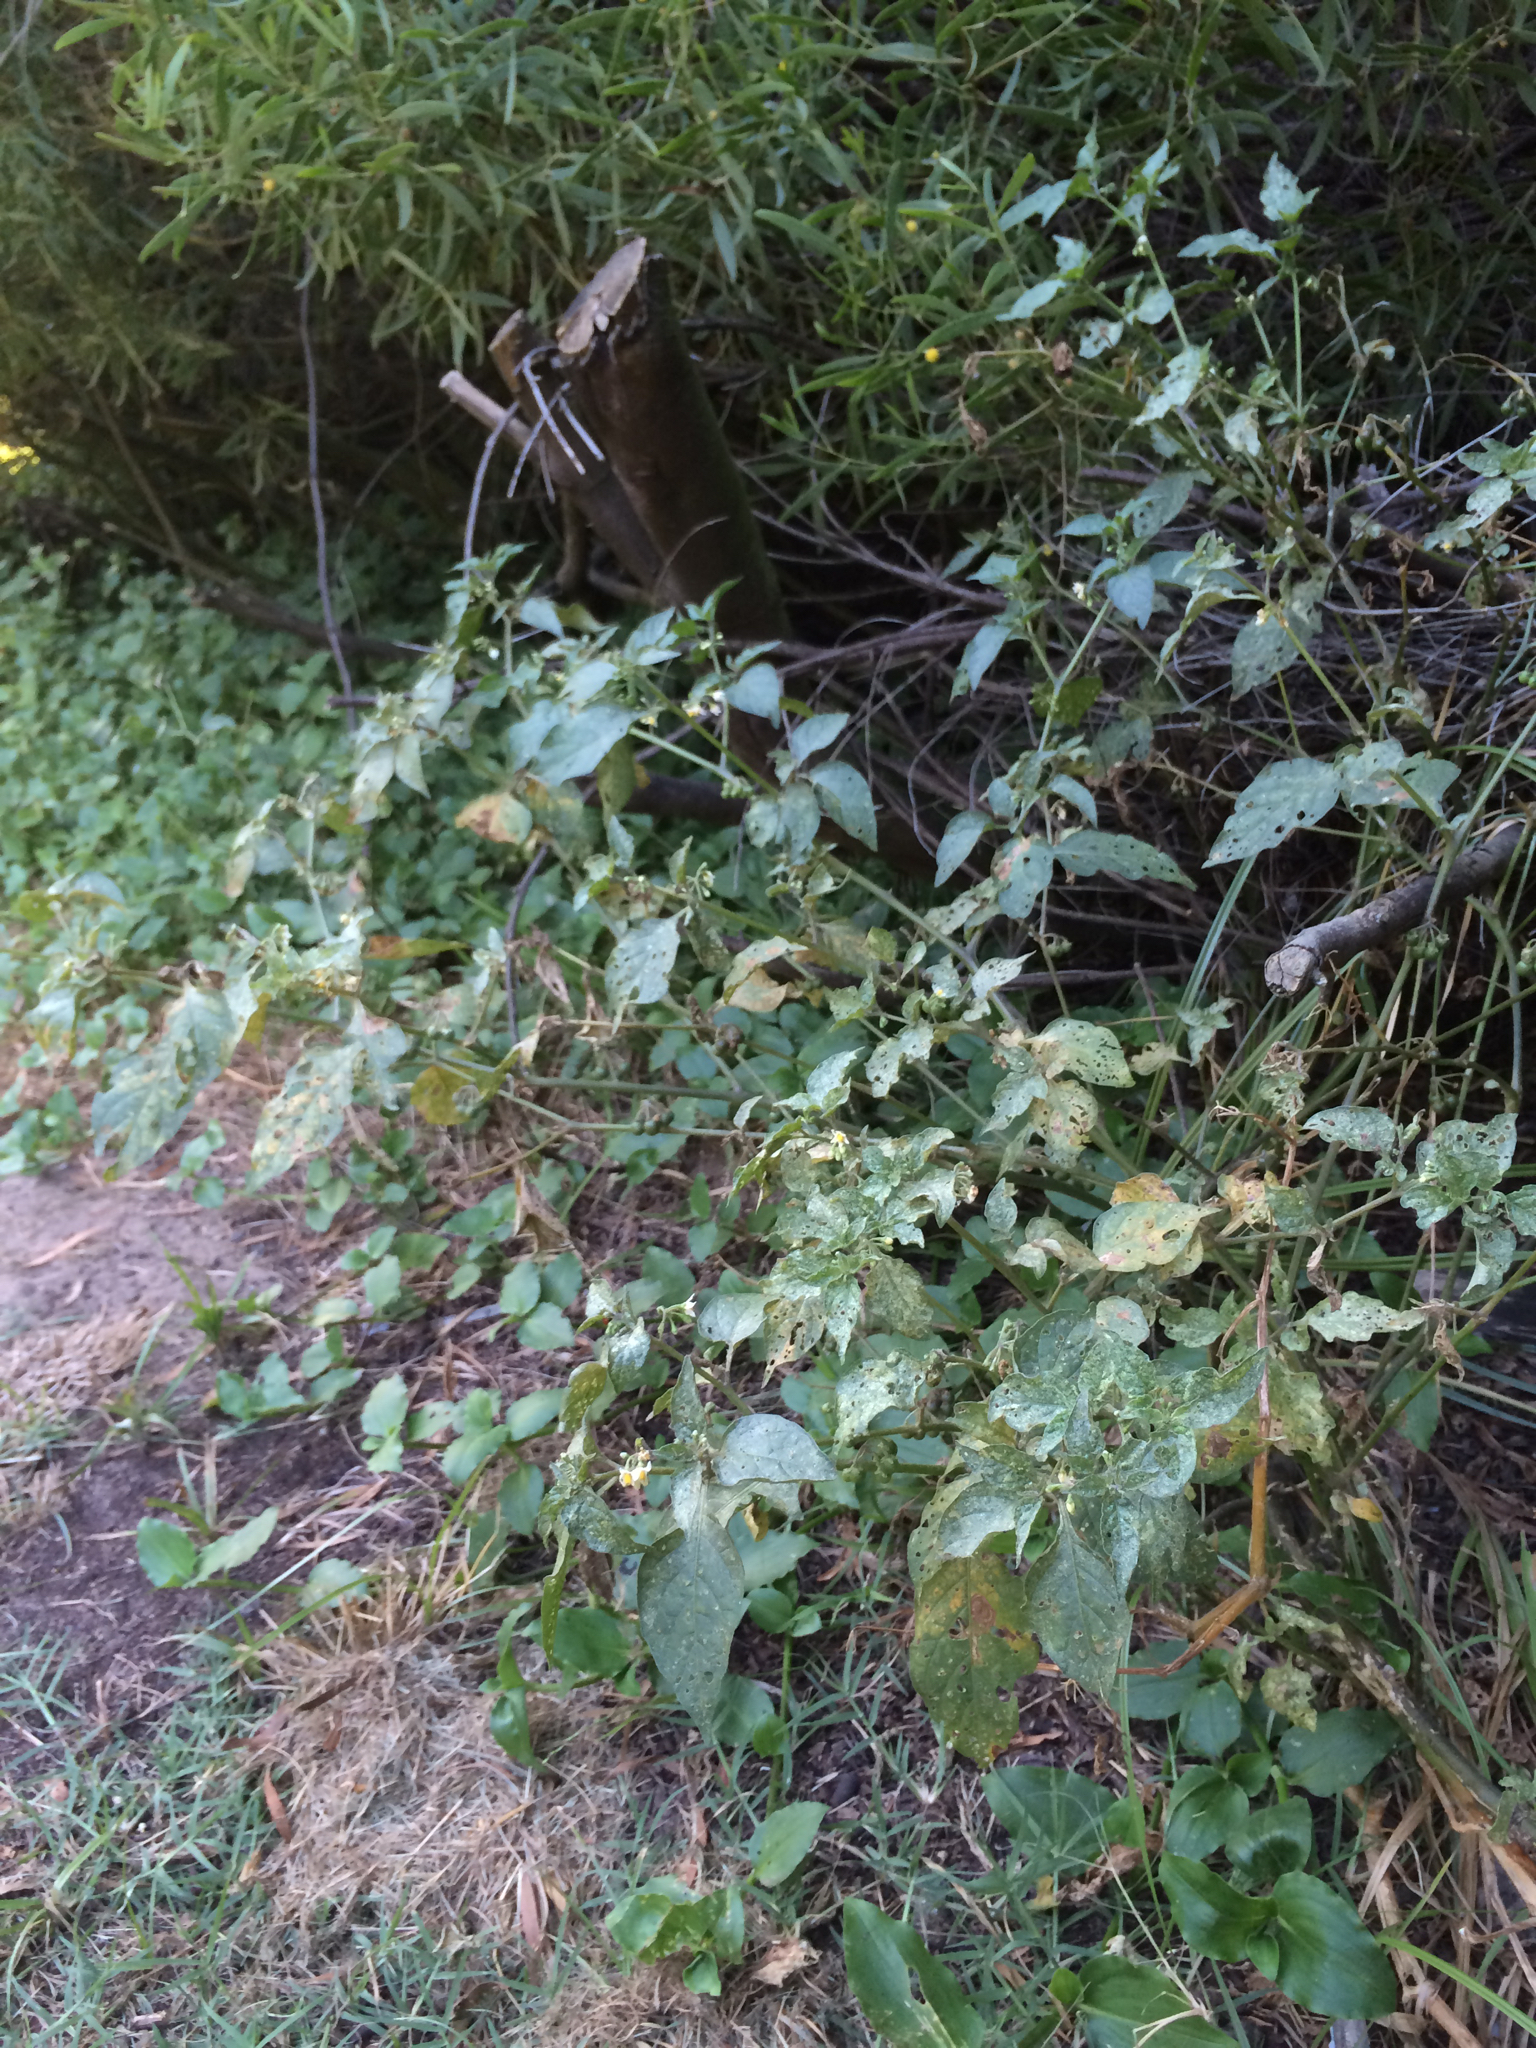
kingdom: Plantae
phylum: Tracheophyta
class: Magnoliopsida
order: Solanales
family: Solanaceae
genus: Solanum
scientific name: Solanum nigrum
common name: Black nightshade
